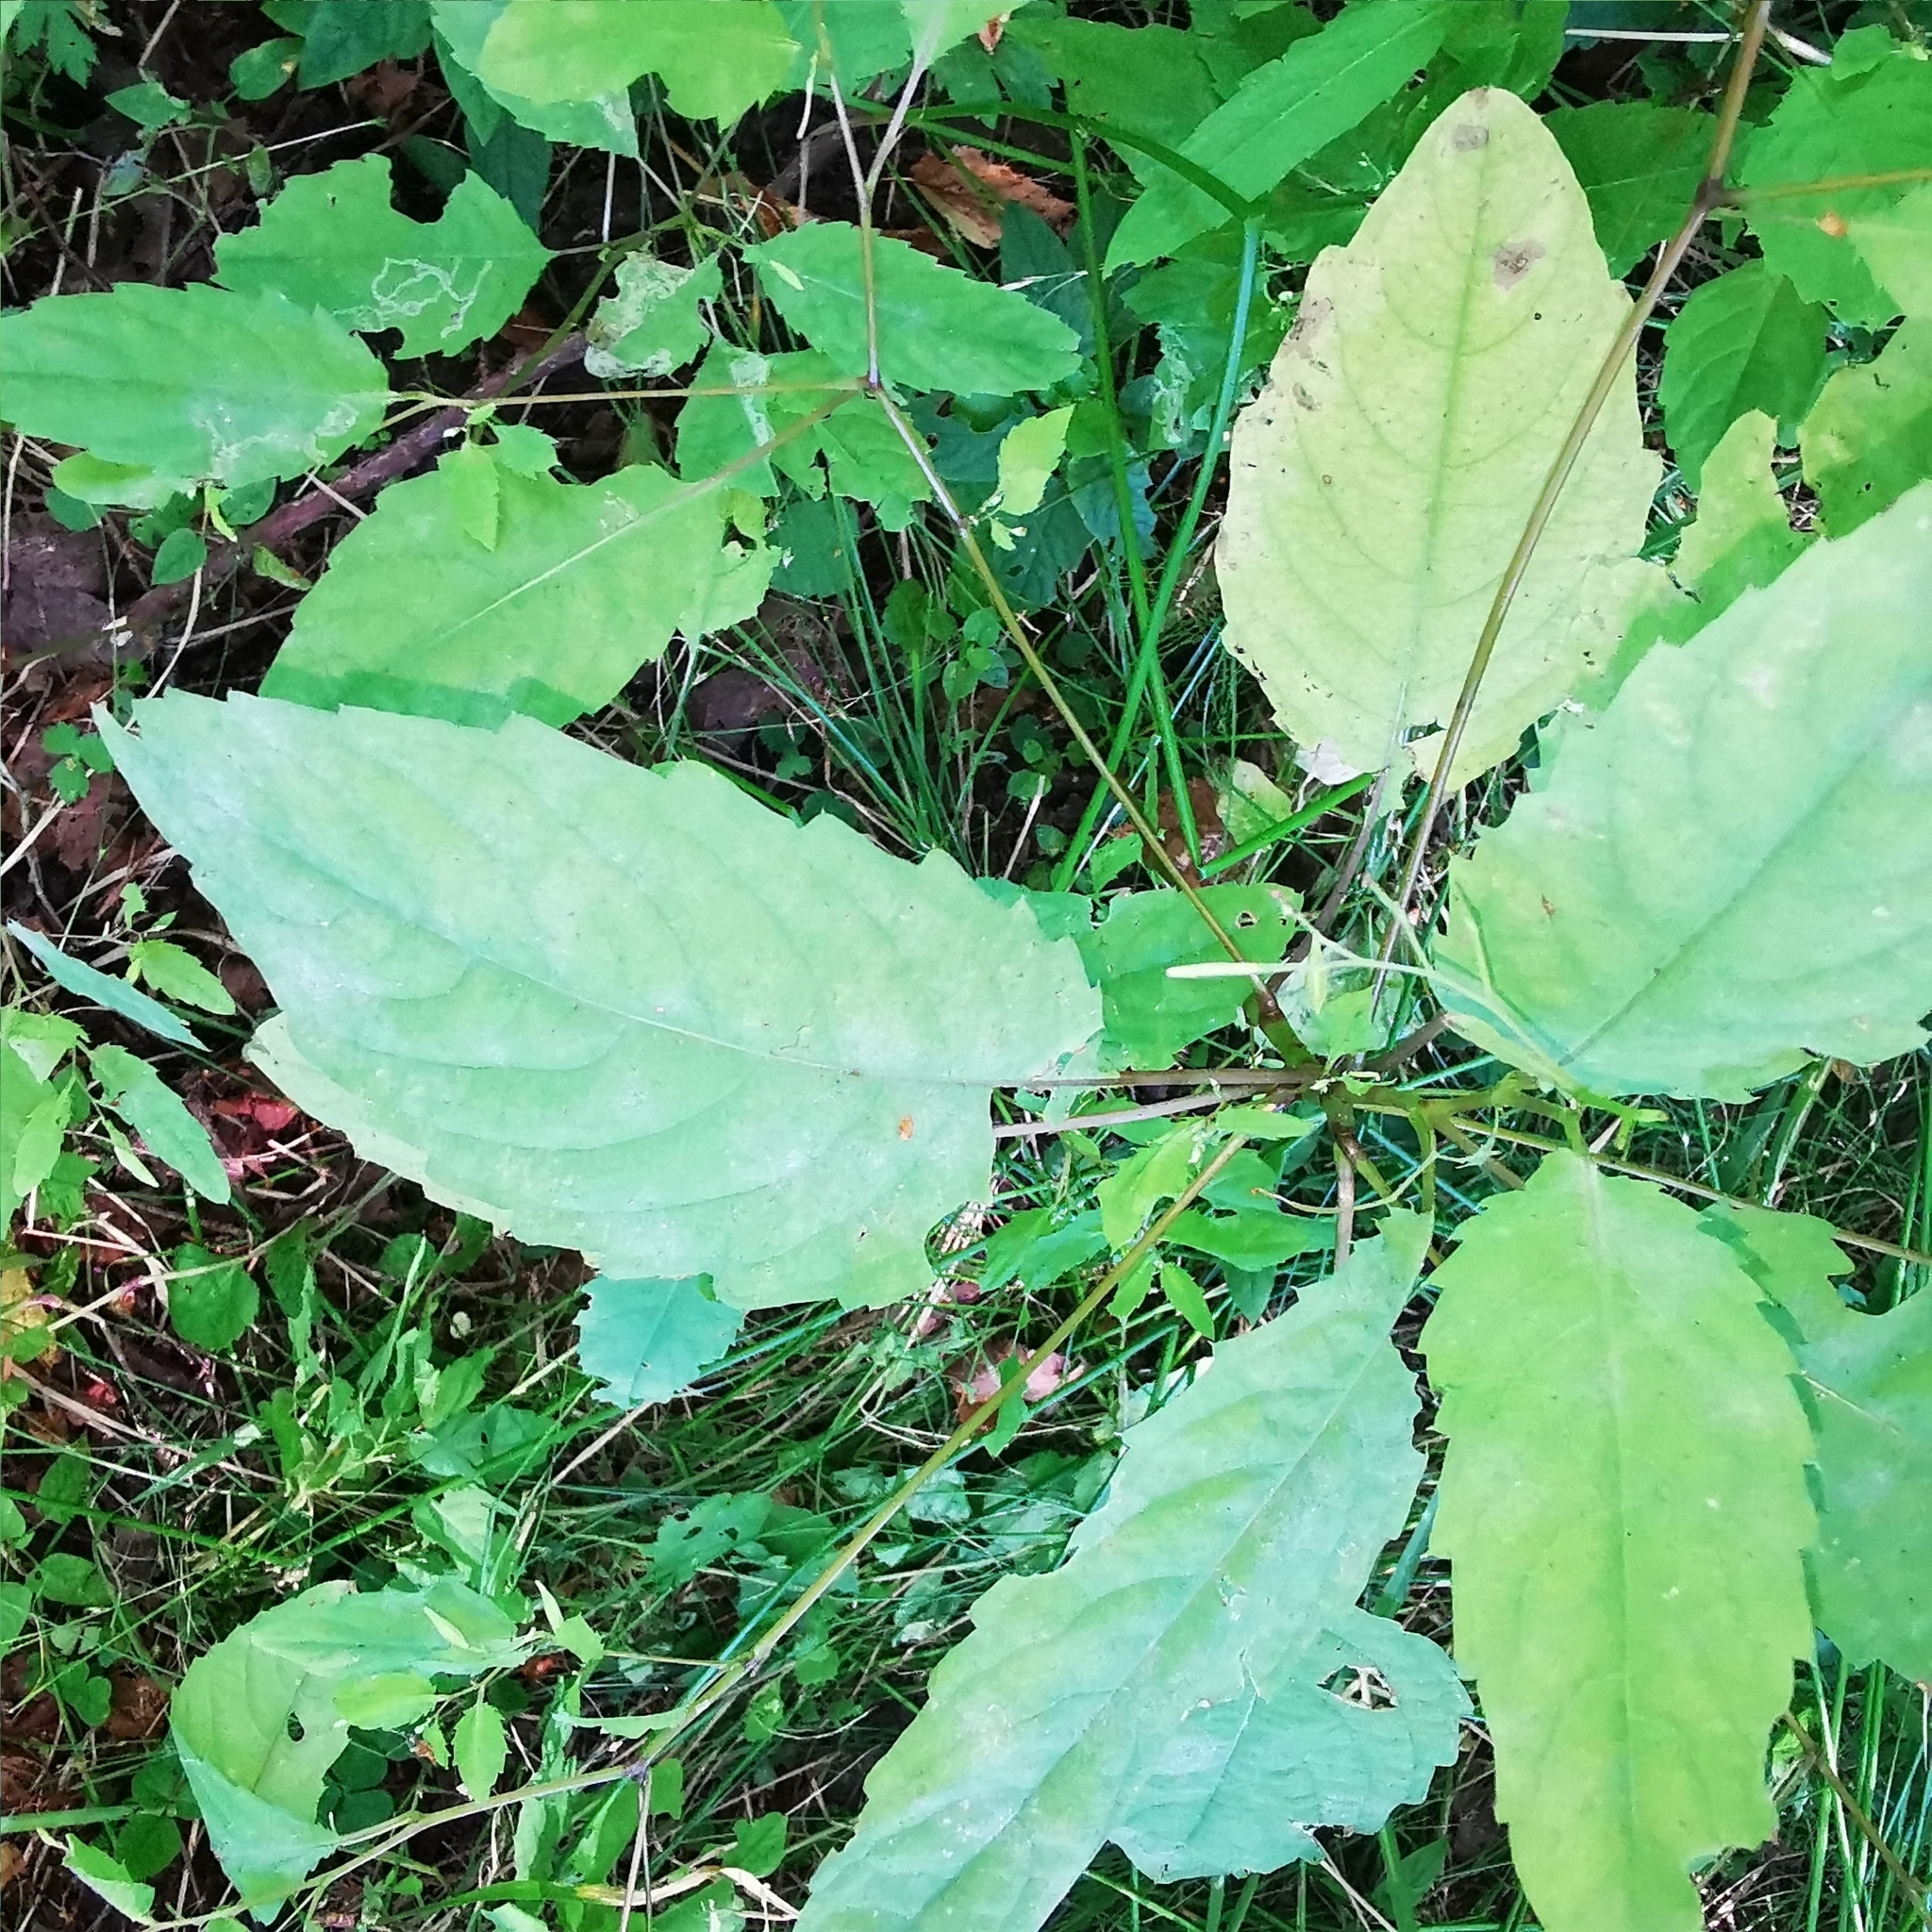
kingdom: Plantae
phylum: Tracheophyta
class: Magnoliopsida
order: Ericales
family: Balsaminaceae
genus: Impatiens
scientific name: Impatiens noli-tangere
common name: Touch-me-not balsam
